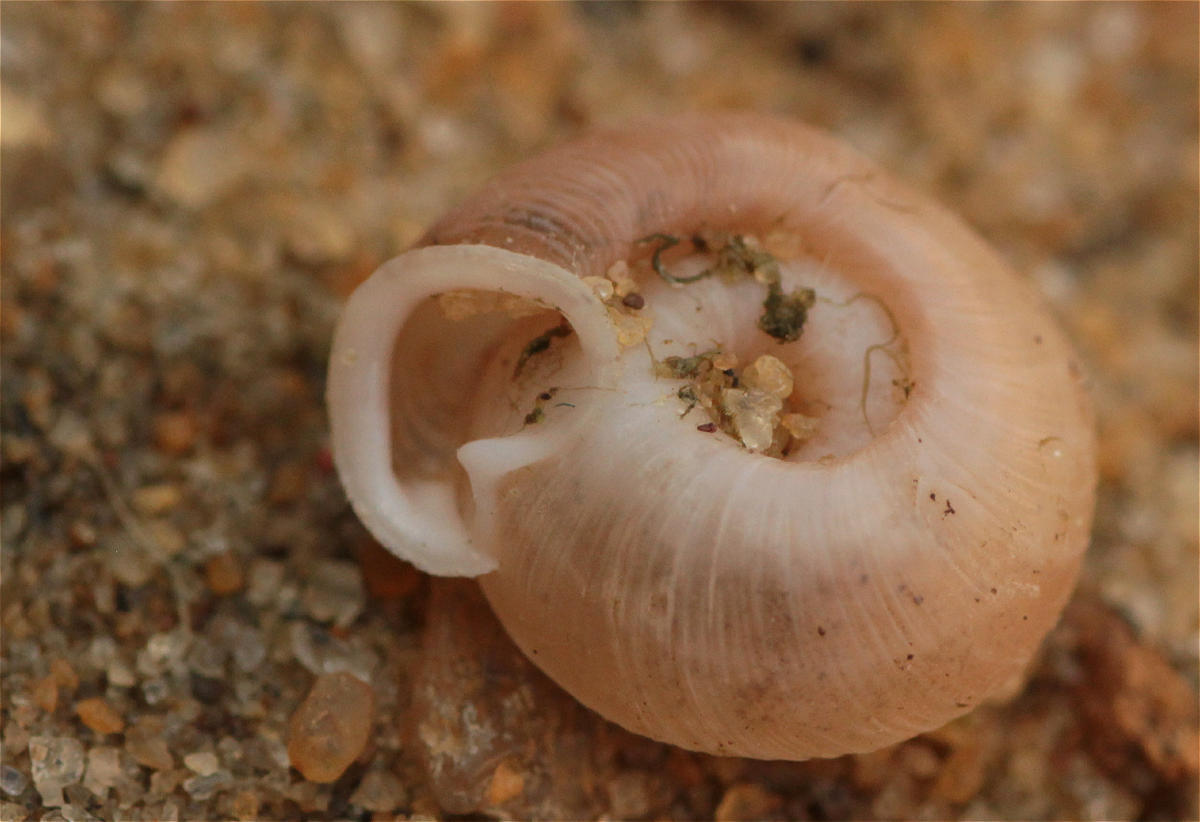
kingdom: Animalia
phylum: Mollusca
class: Gastropoda
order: Stylommatophora
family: Polygyridae
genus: Polygyra
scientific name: Polygyra cereolus
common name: Southern flatcone snail
